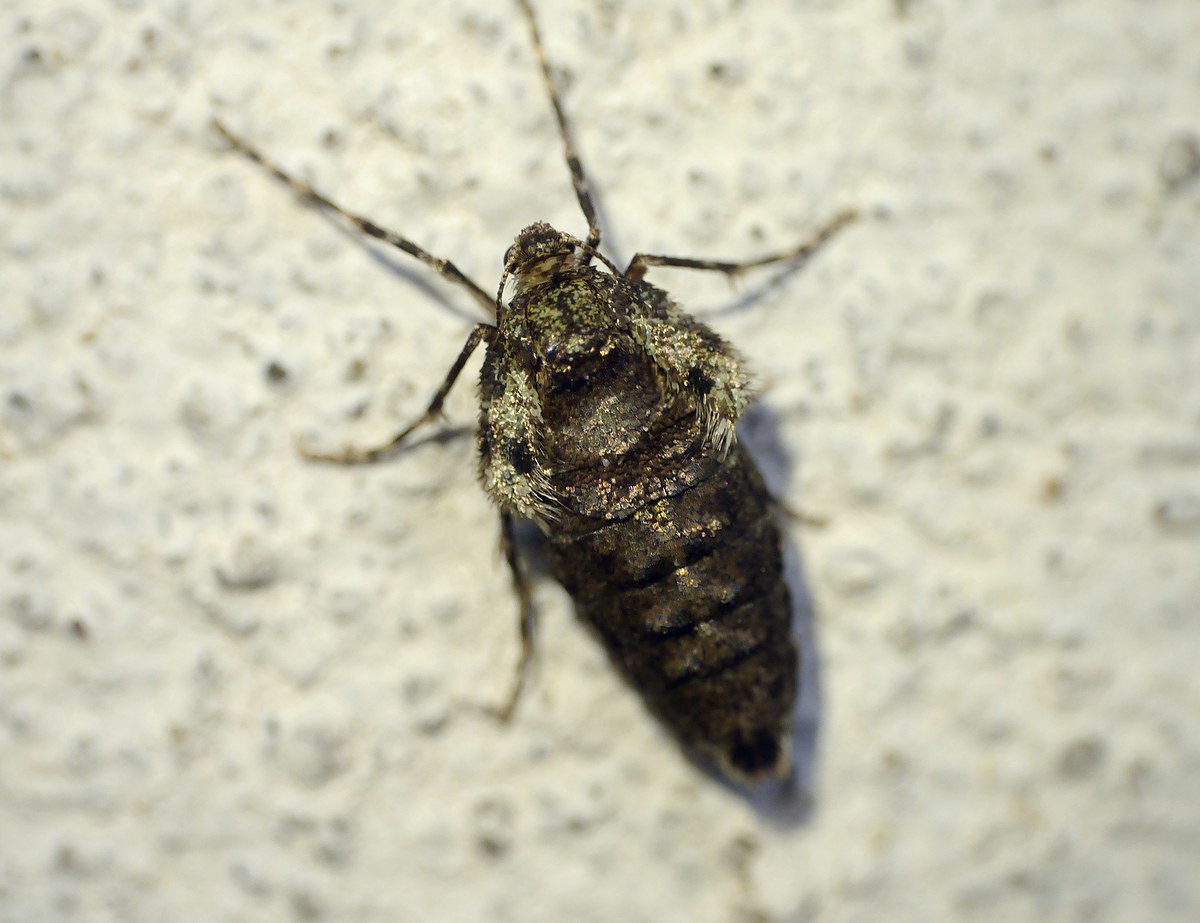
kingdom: Animalia
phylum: Arthropoda
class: Insecta
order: Lepidoptera
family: Geometridae
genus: Operophtera
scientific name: Operophtera brumata
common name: Winter moth
